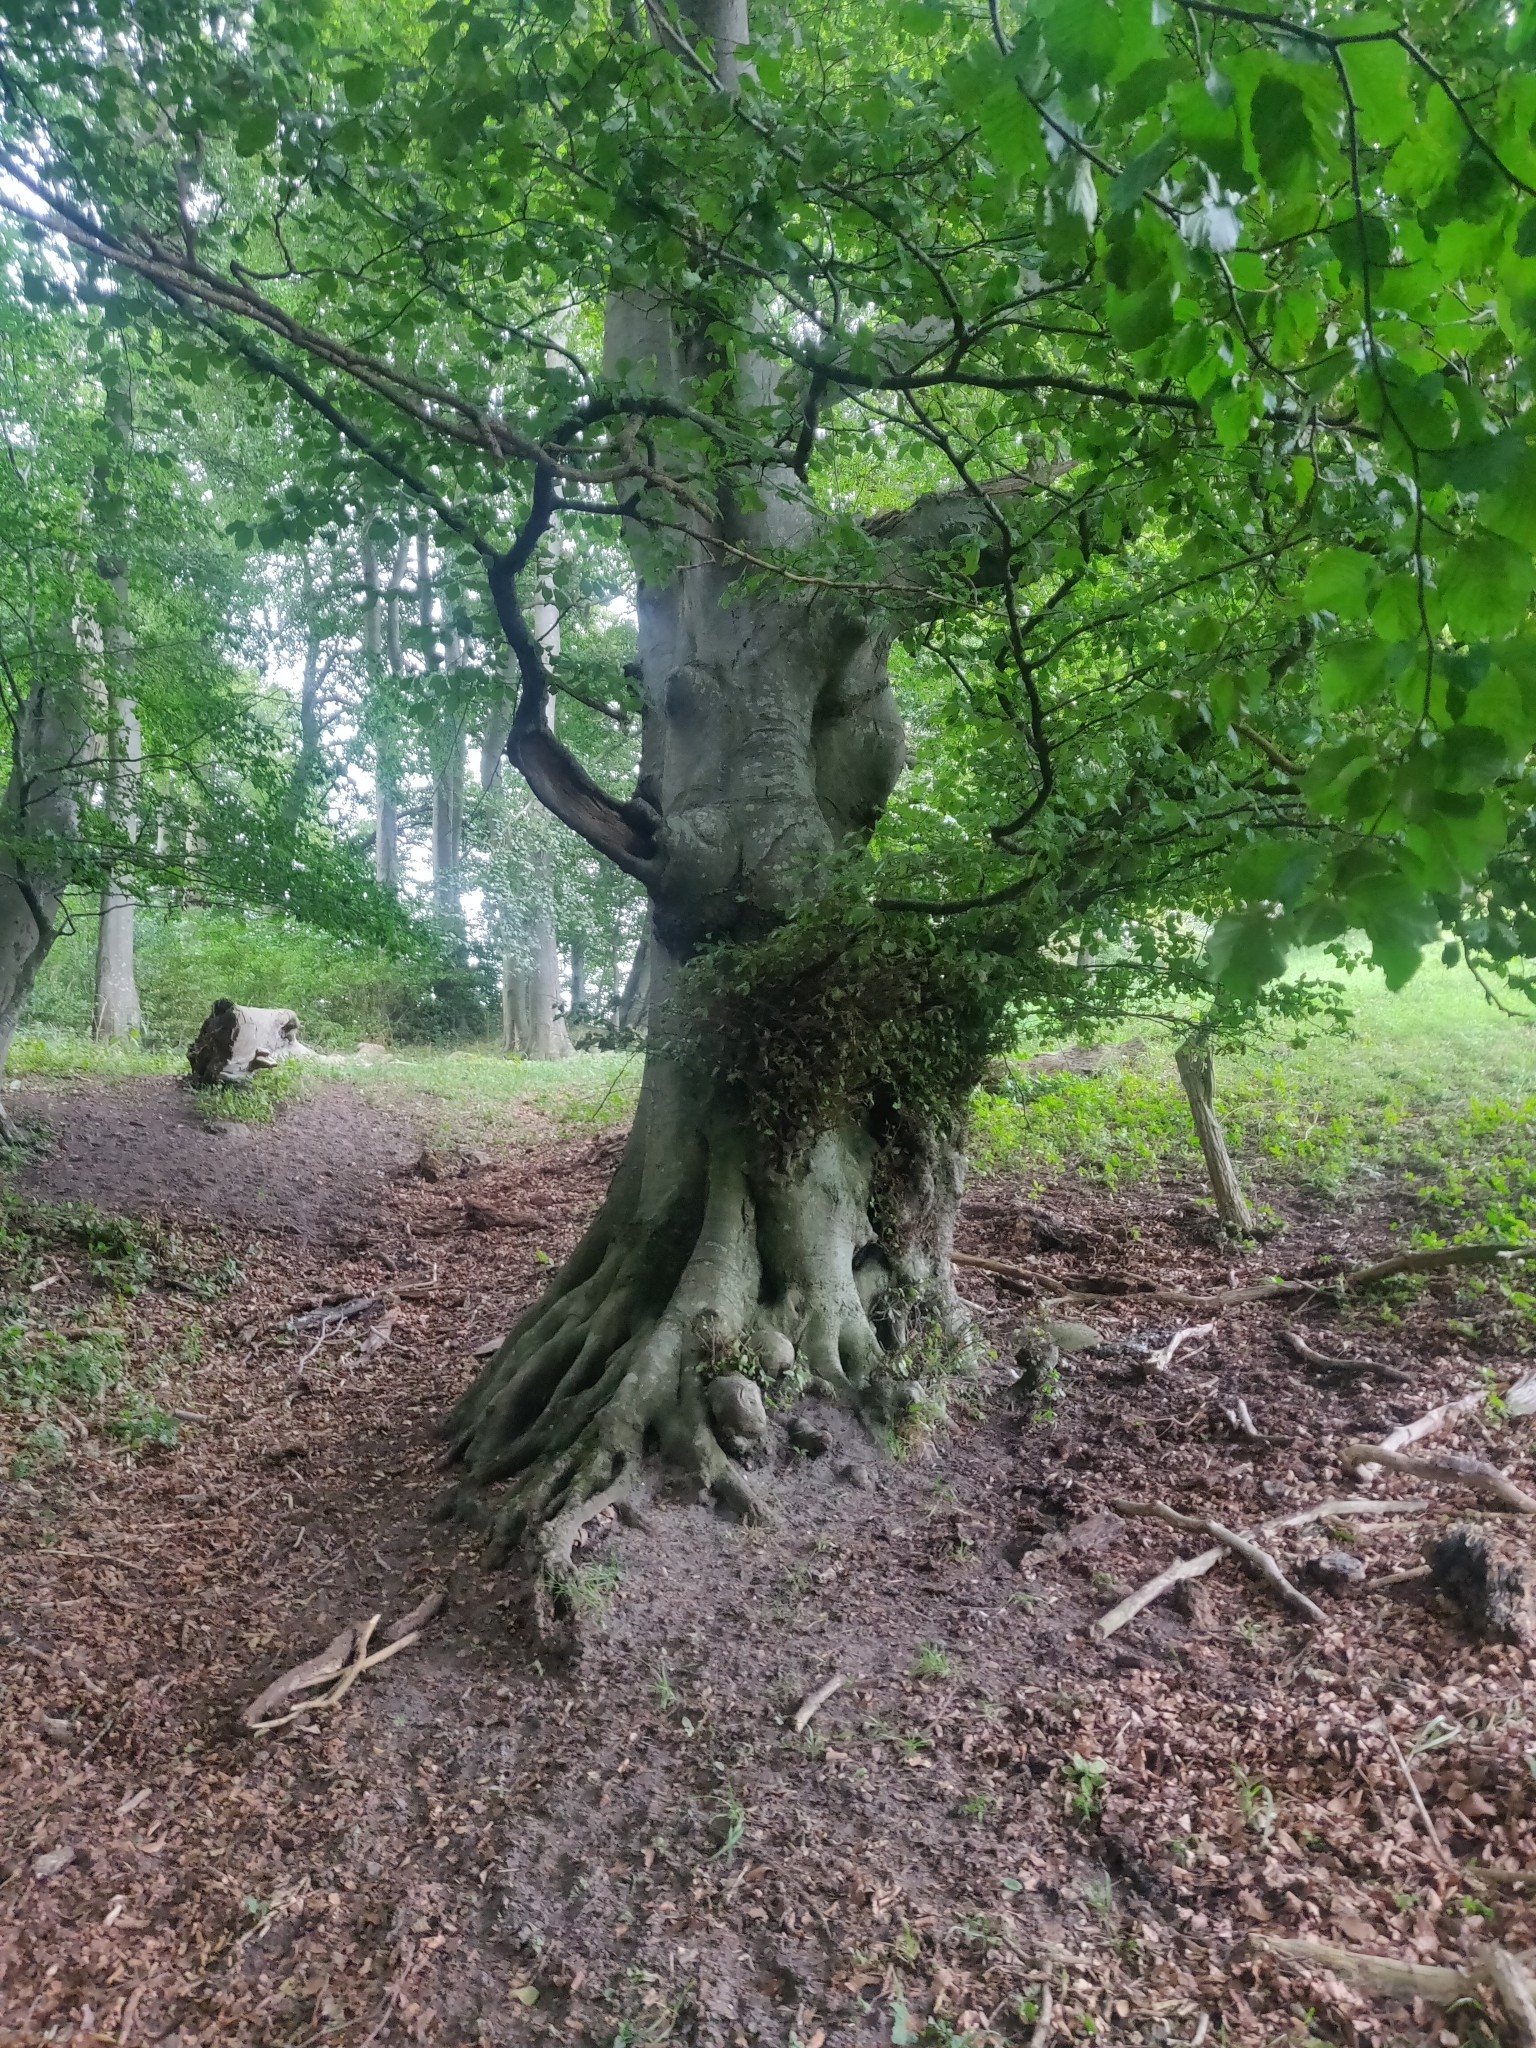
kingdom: Plantae
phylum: Tracheophyta
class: Magnoliopsida
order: Fagales
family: Fagaceae
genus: Fagus
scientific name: Fagus sylvatica
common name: Beech
